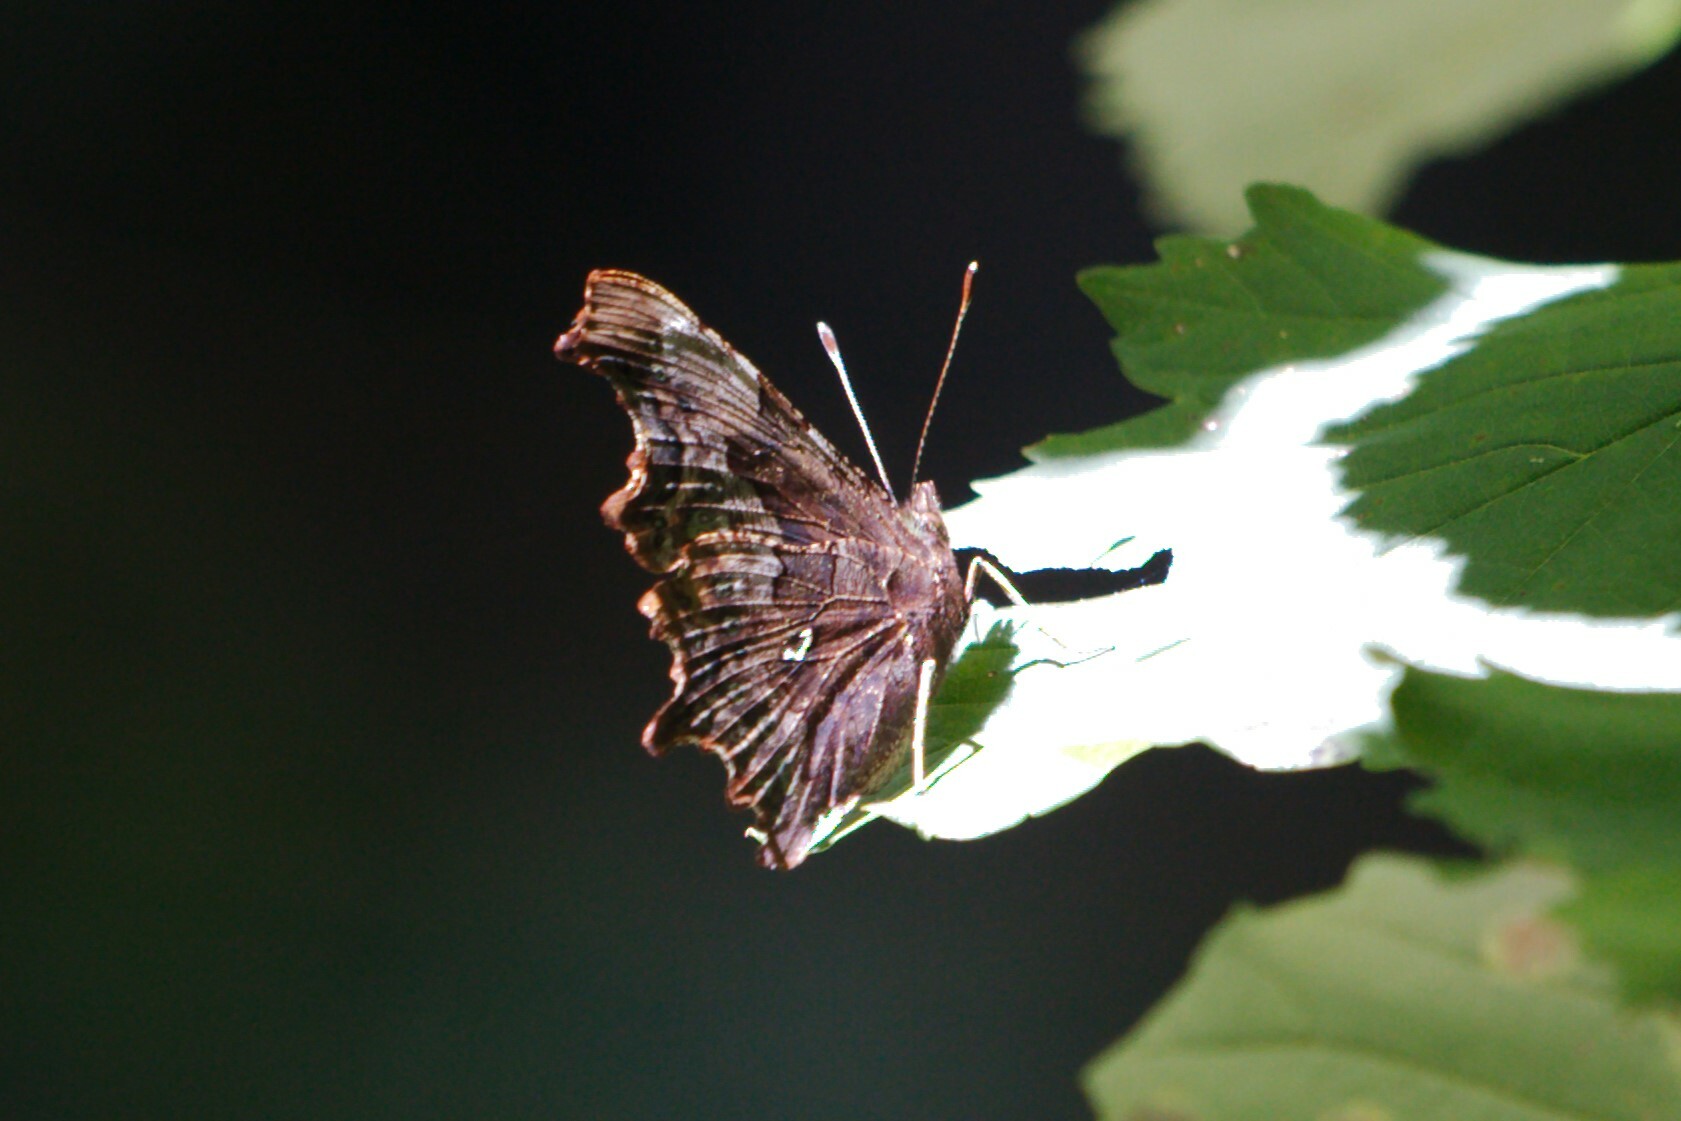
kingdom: Animalia
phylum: Arthropoda
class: Insecta
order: Lepidoptera
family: Nymphalidae
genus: Polygonia
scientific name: Polygonia c-album
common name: Comma
